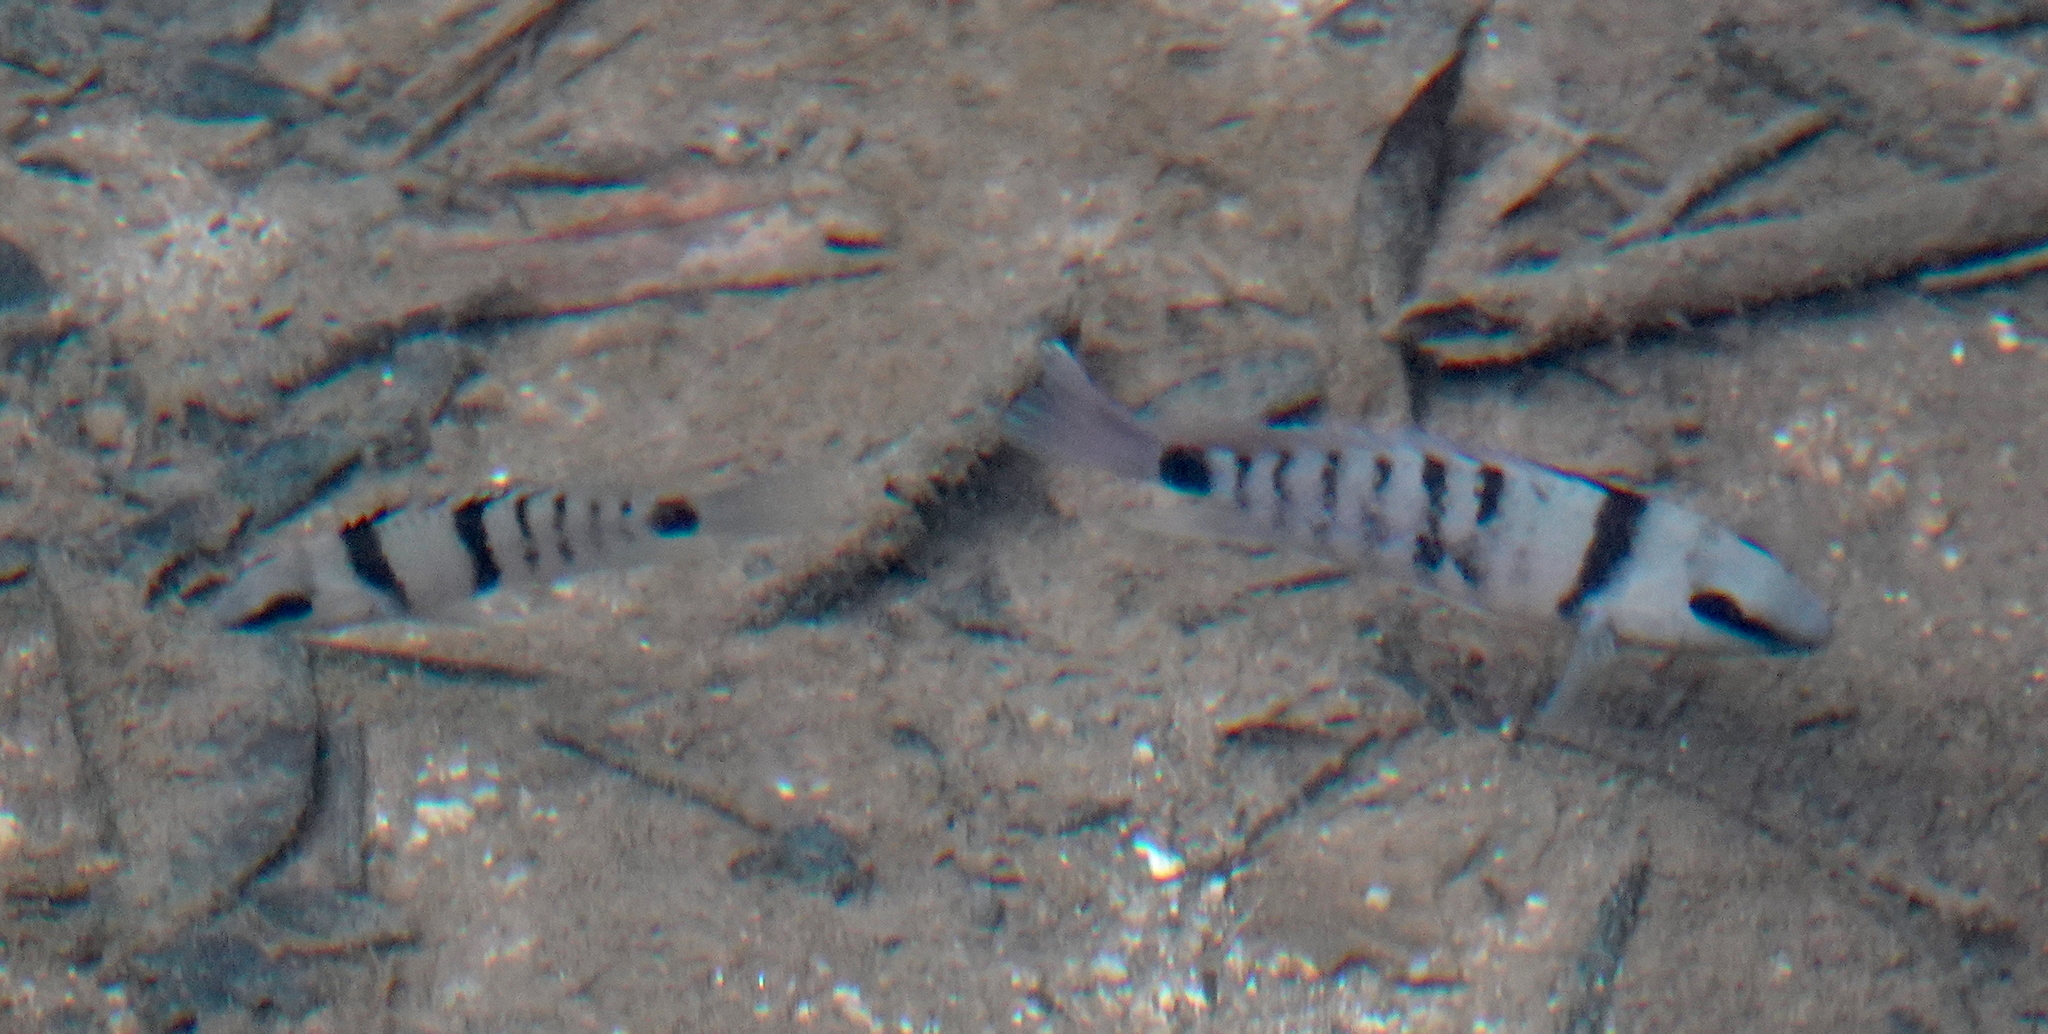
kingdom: Animalia
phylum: Chordata
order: Perciformes
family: Cichlidae
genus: Cryptoheros
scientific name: Cryptoheros cutteri
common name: Cutter's cichlid
